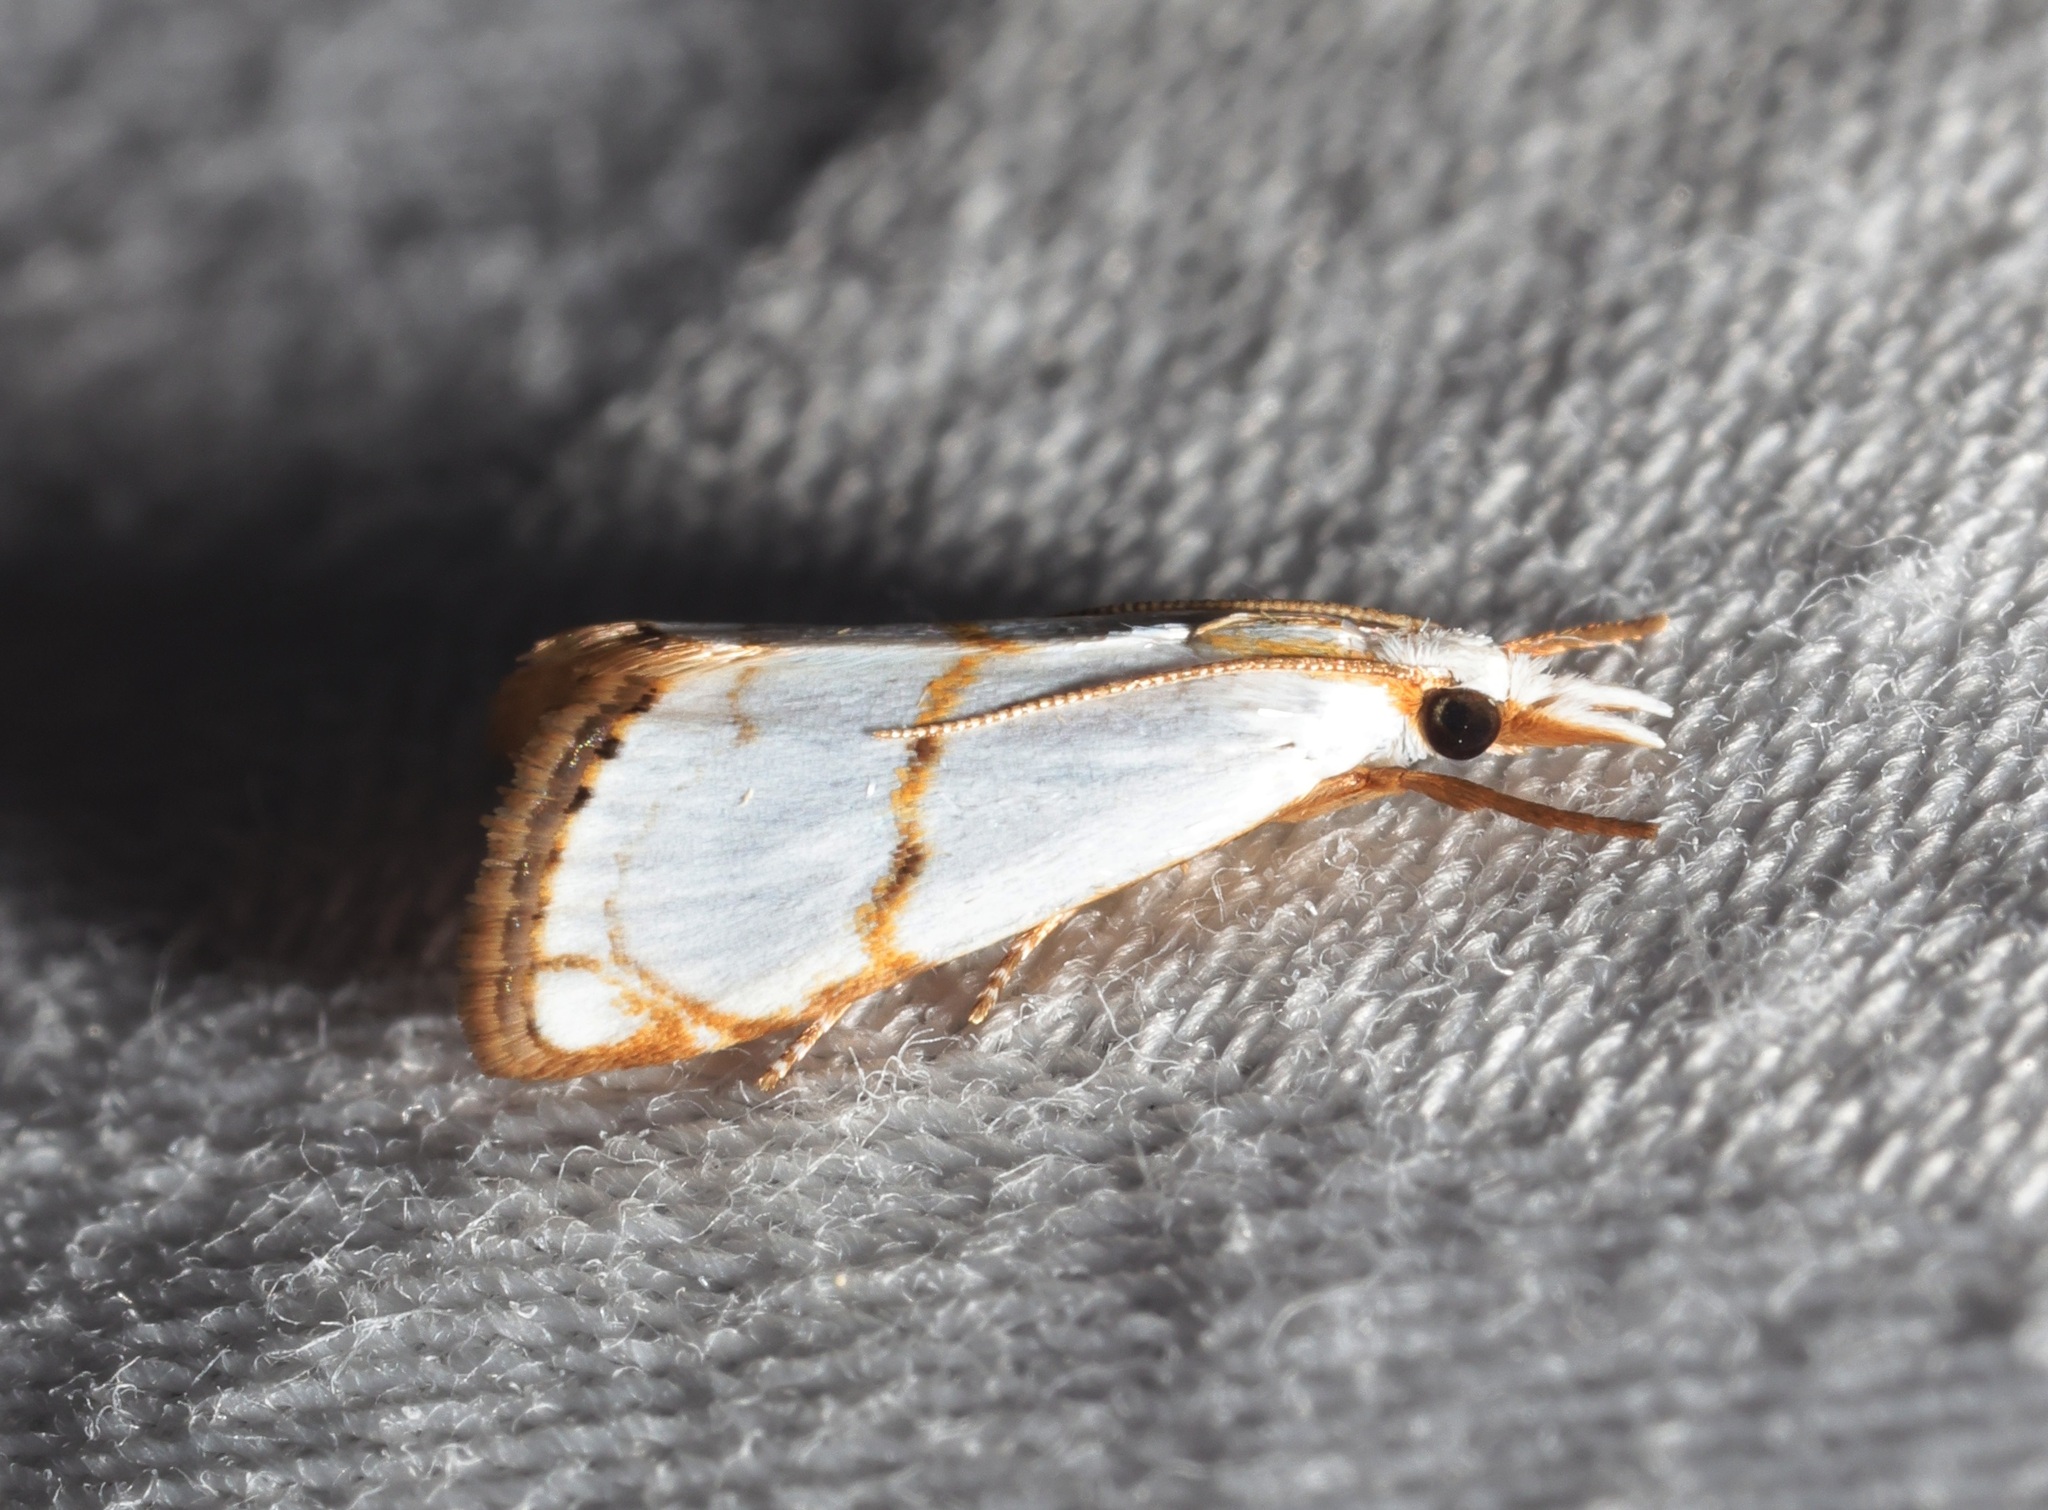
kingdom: Animalia
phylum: Arthropoda
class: Insecta
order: Lepidoptera
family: Crambidae
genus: Pseudargyria
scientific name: Pseudargyria interruptella
